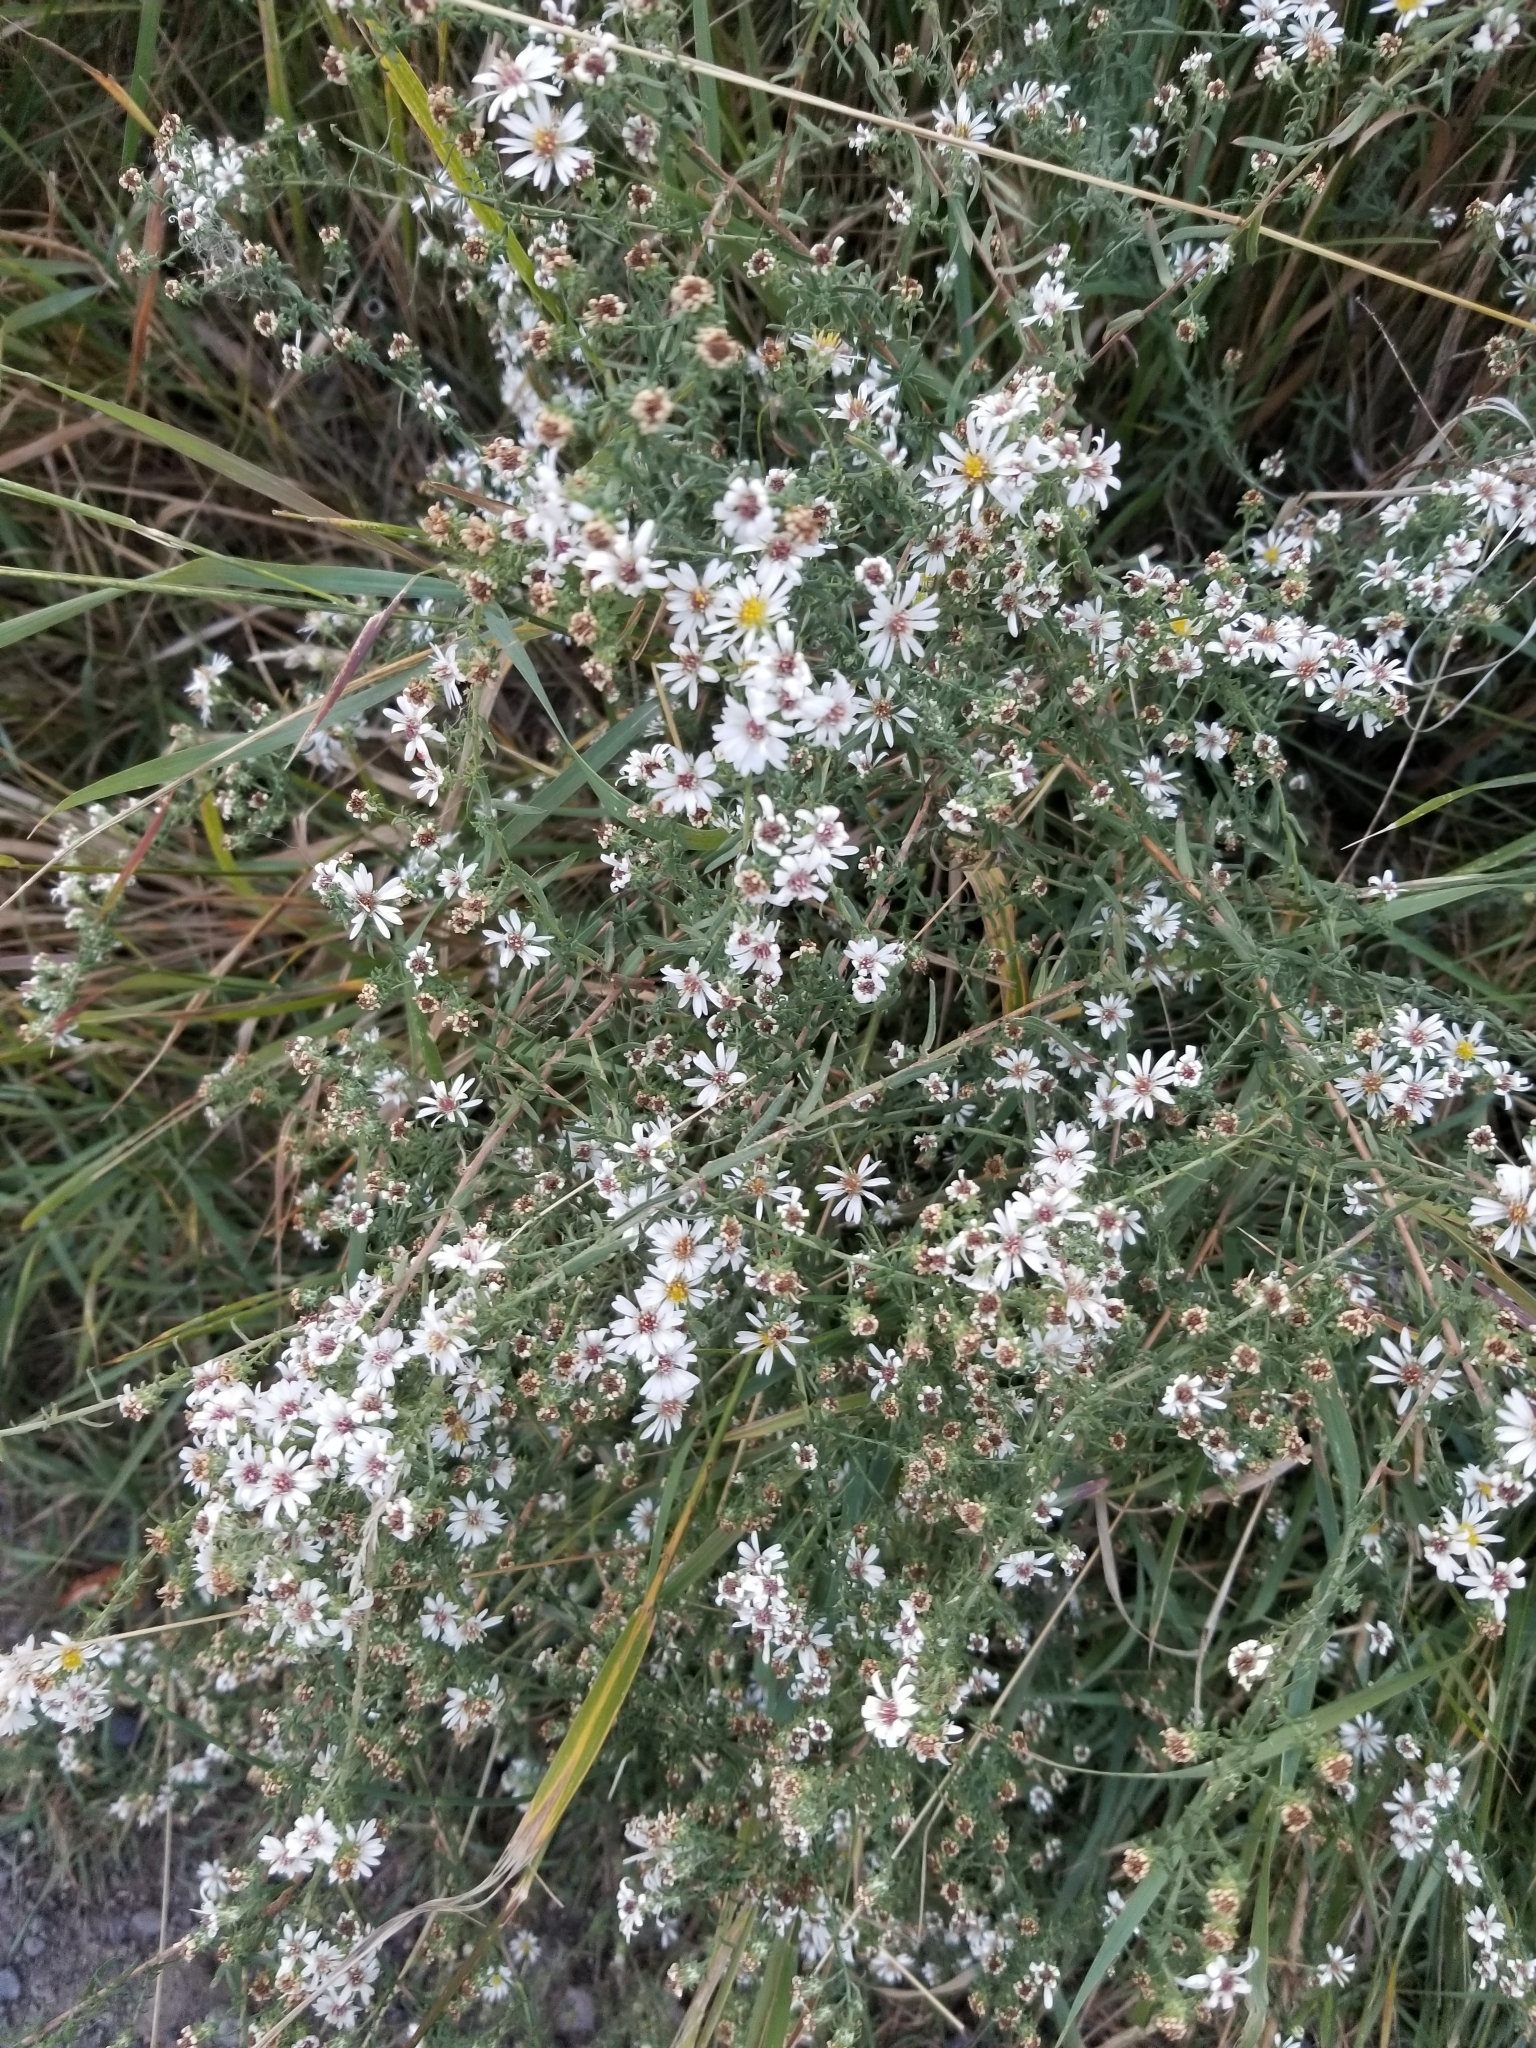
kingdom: Plantae
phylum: Tracheophyta
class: Magnoliopsida
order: Asterales
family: Asteraceae
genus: Symphyotrichum
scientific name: Symphyotrichum ericoides
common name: Heath aster
